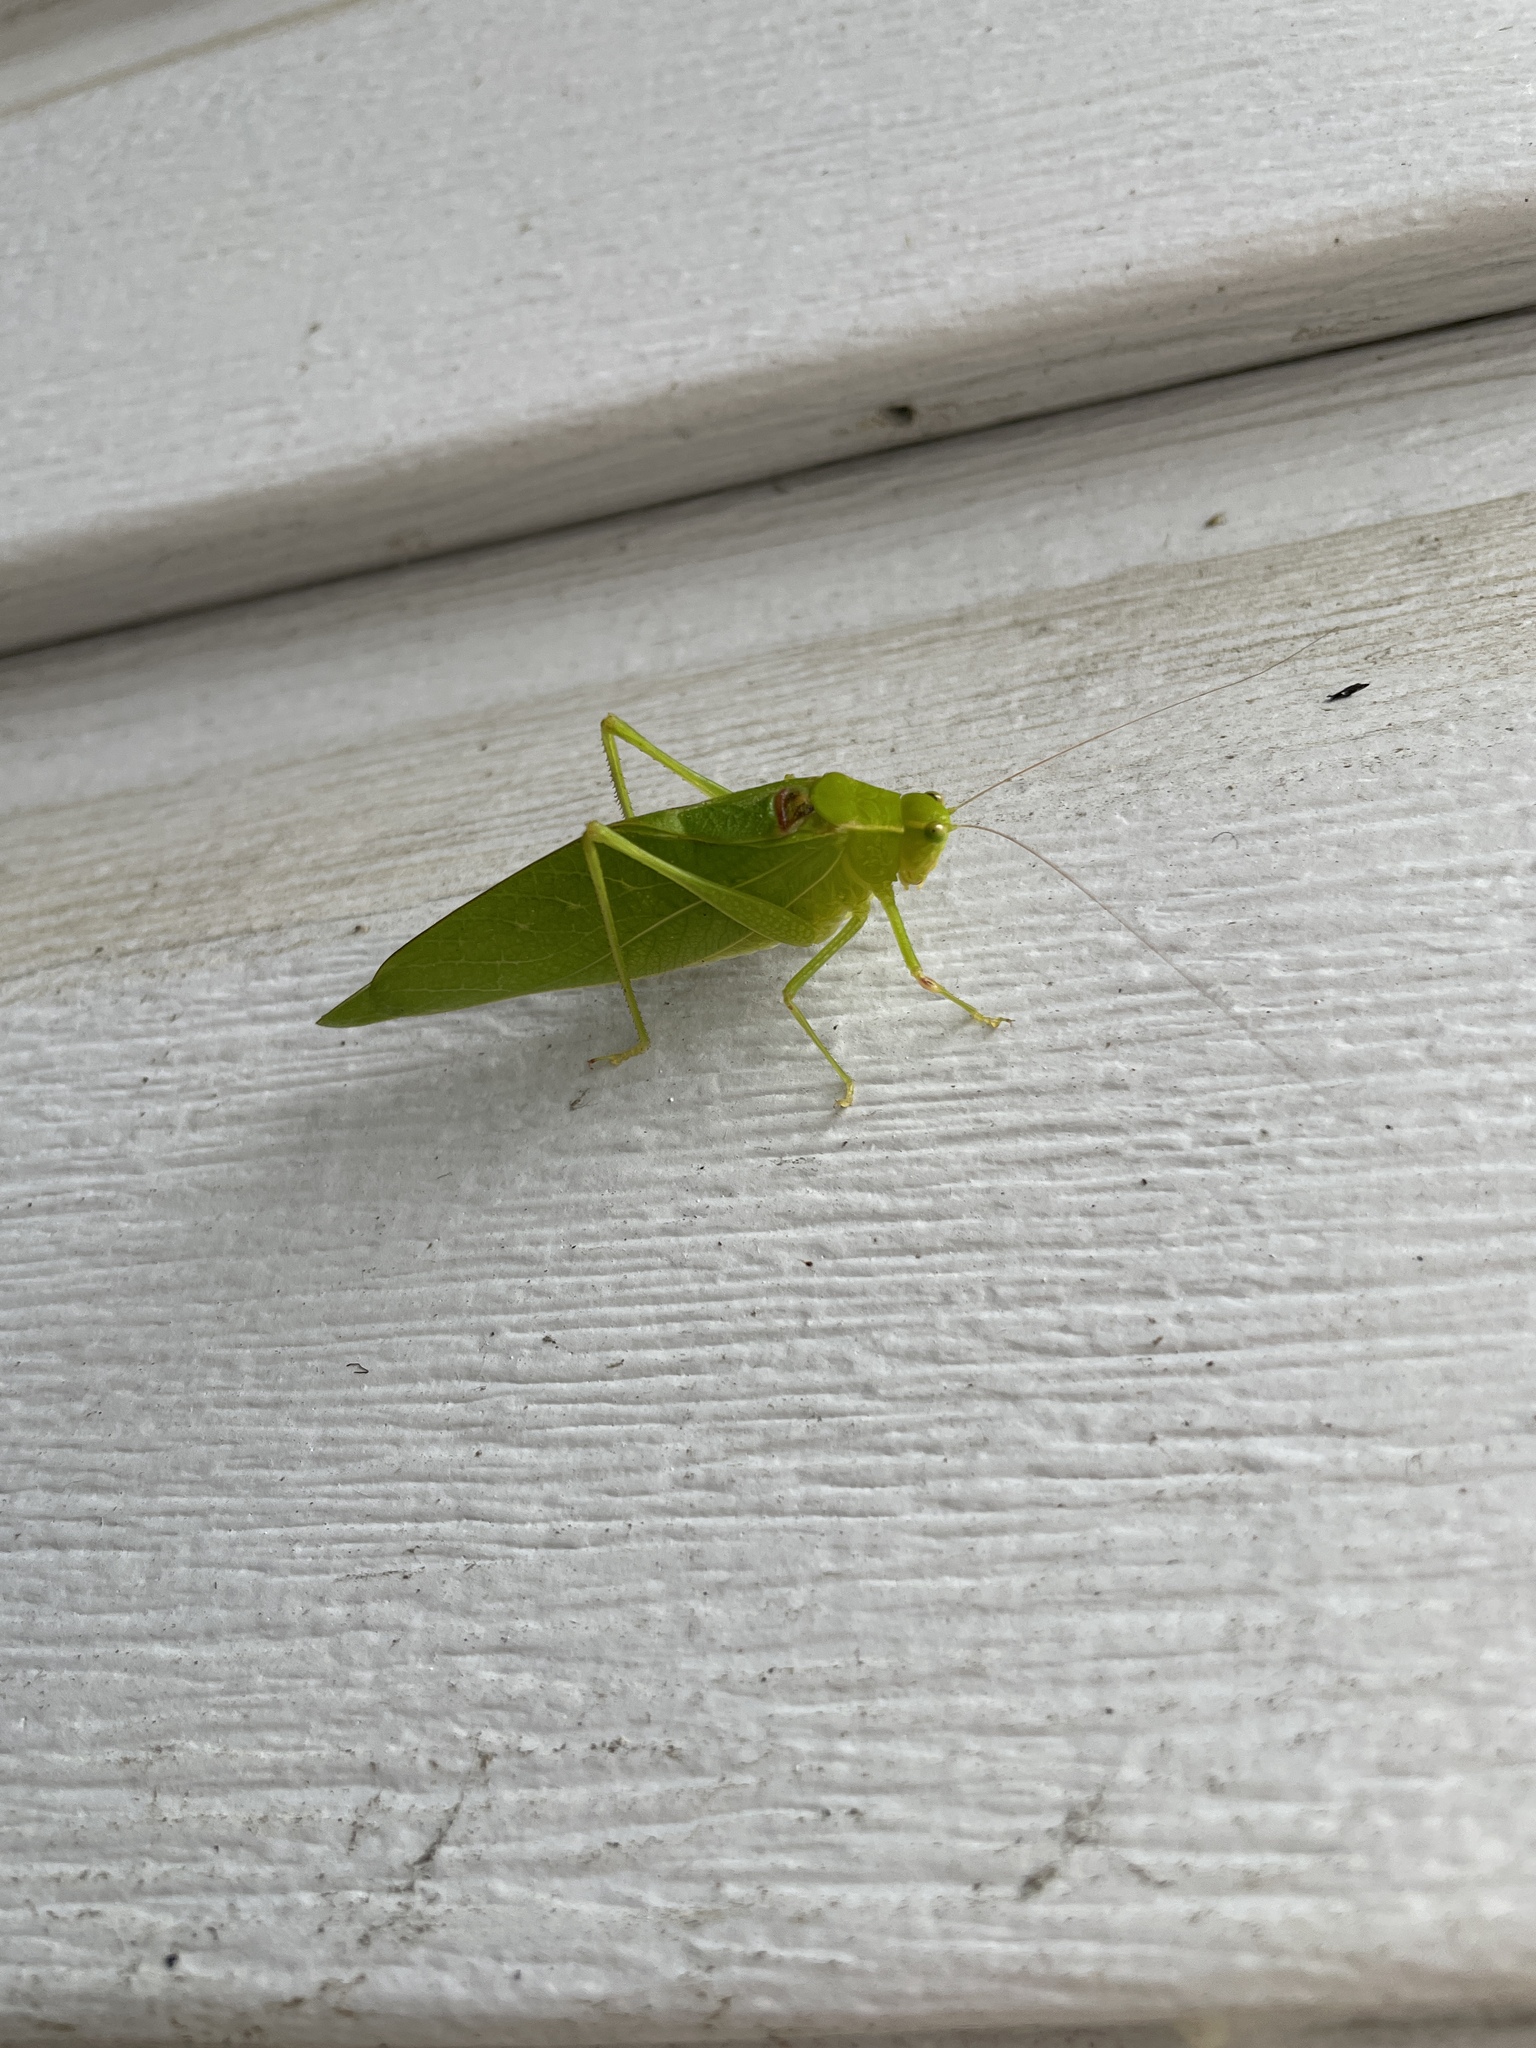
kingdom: Animalia
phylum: Arthropoda
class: Insecta
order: Orthoptera
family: Tettigoniidae
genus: Microcentrum
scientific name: Microcentrum retinerve
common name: Angular-winged katydid
